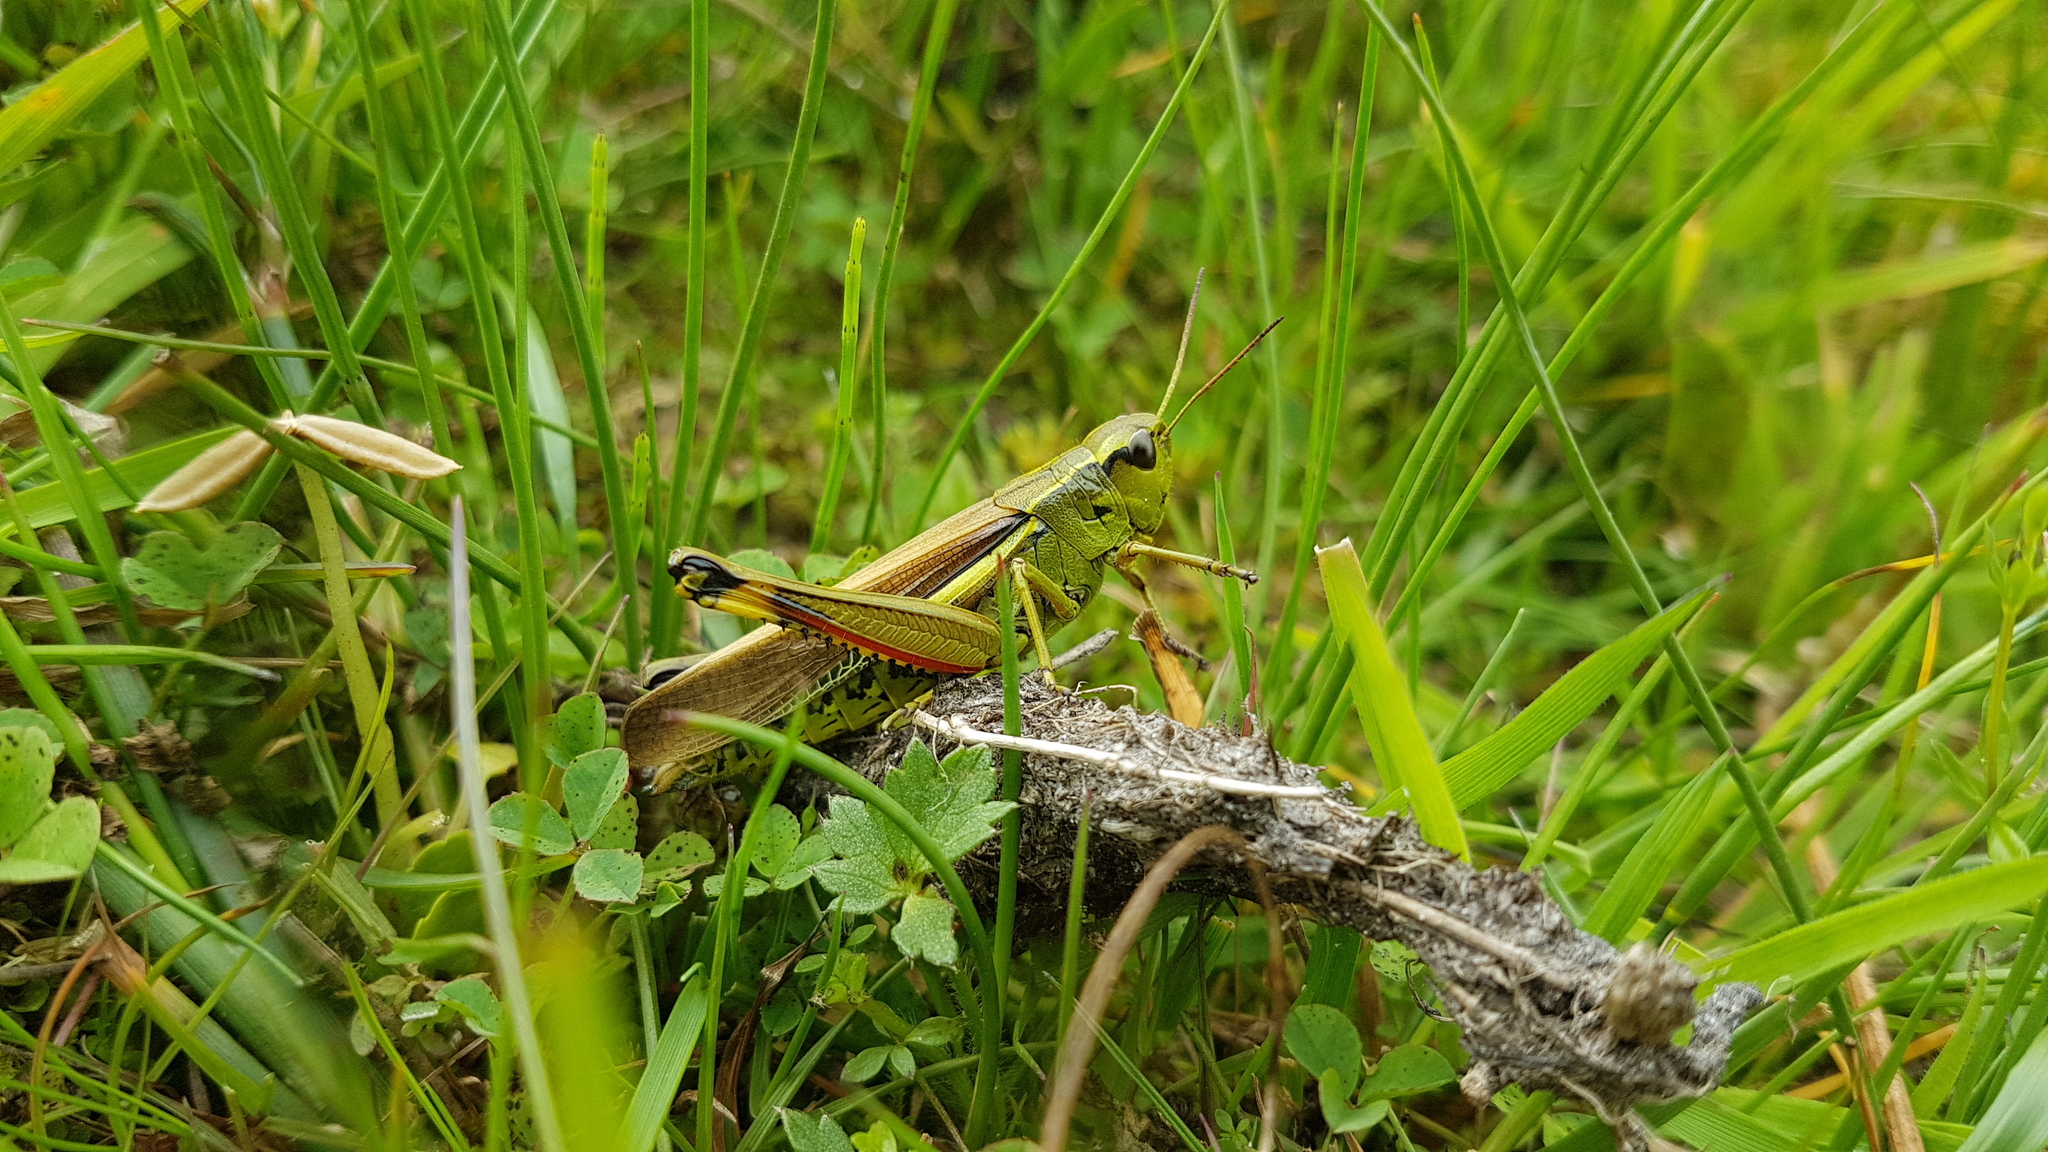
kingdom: Animalia
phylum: Arthropoda
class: Insecta
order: Orthoptera
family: Acrididae
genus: Stethophyma
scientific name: Stethophyma grossum
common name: Large marsh grasshopper
